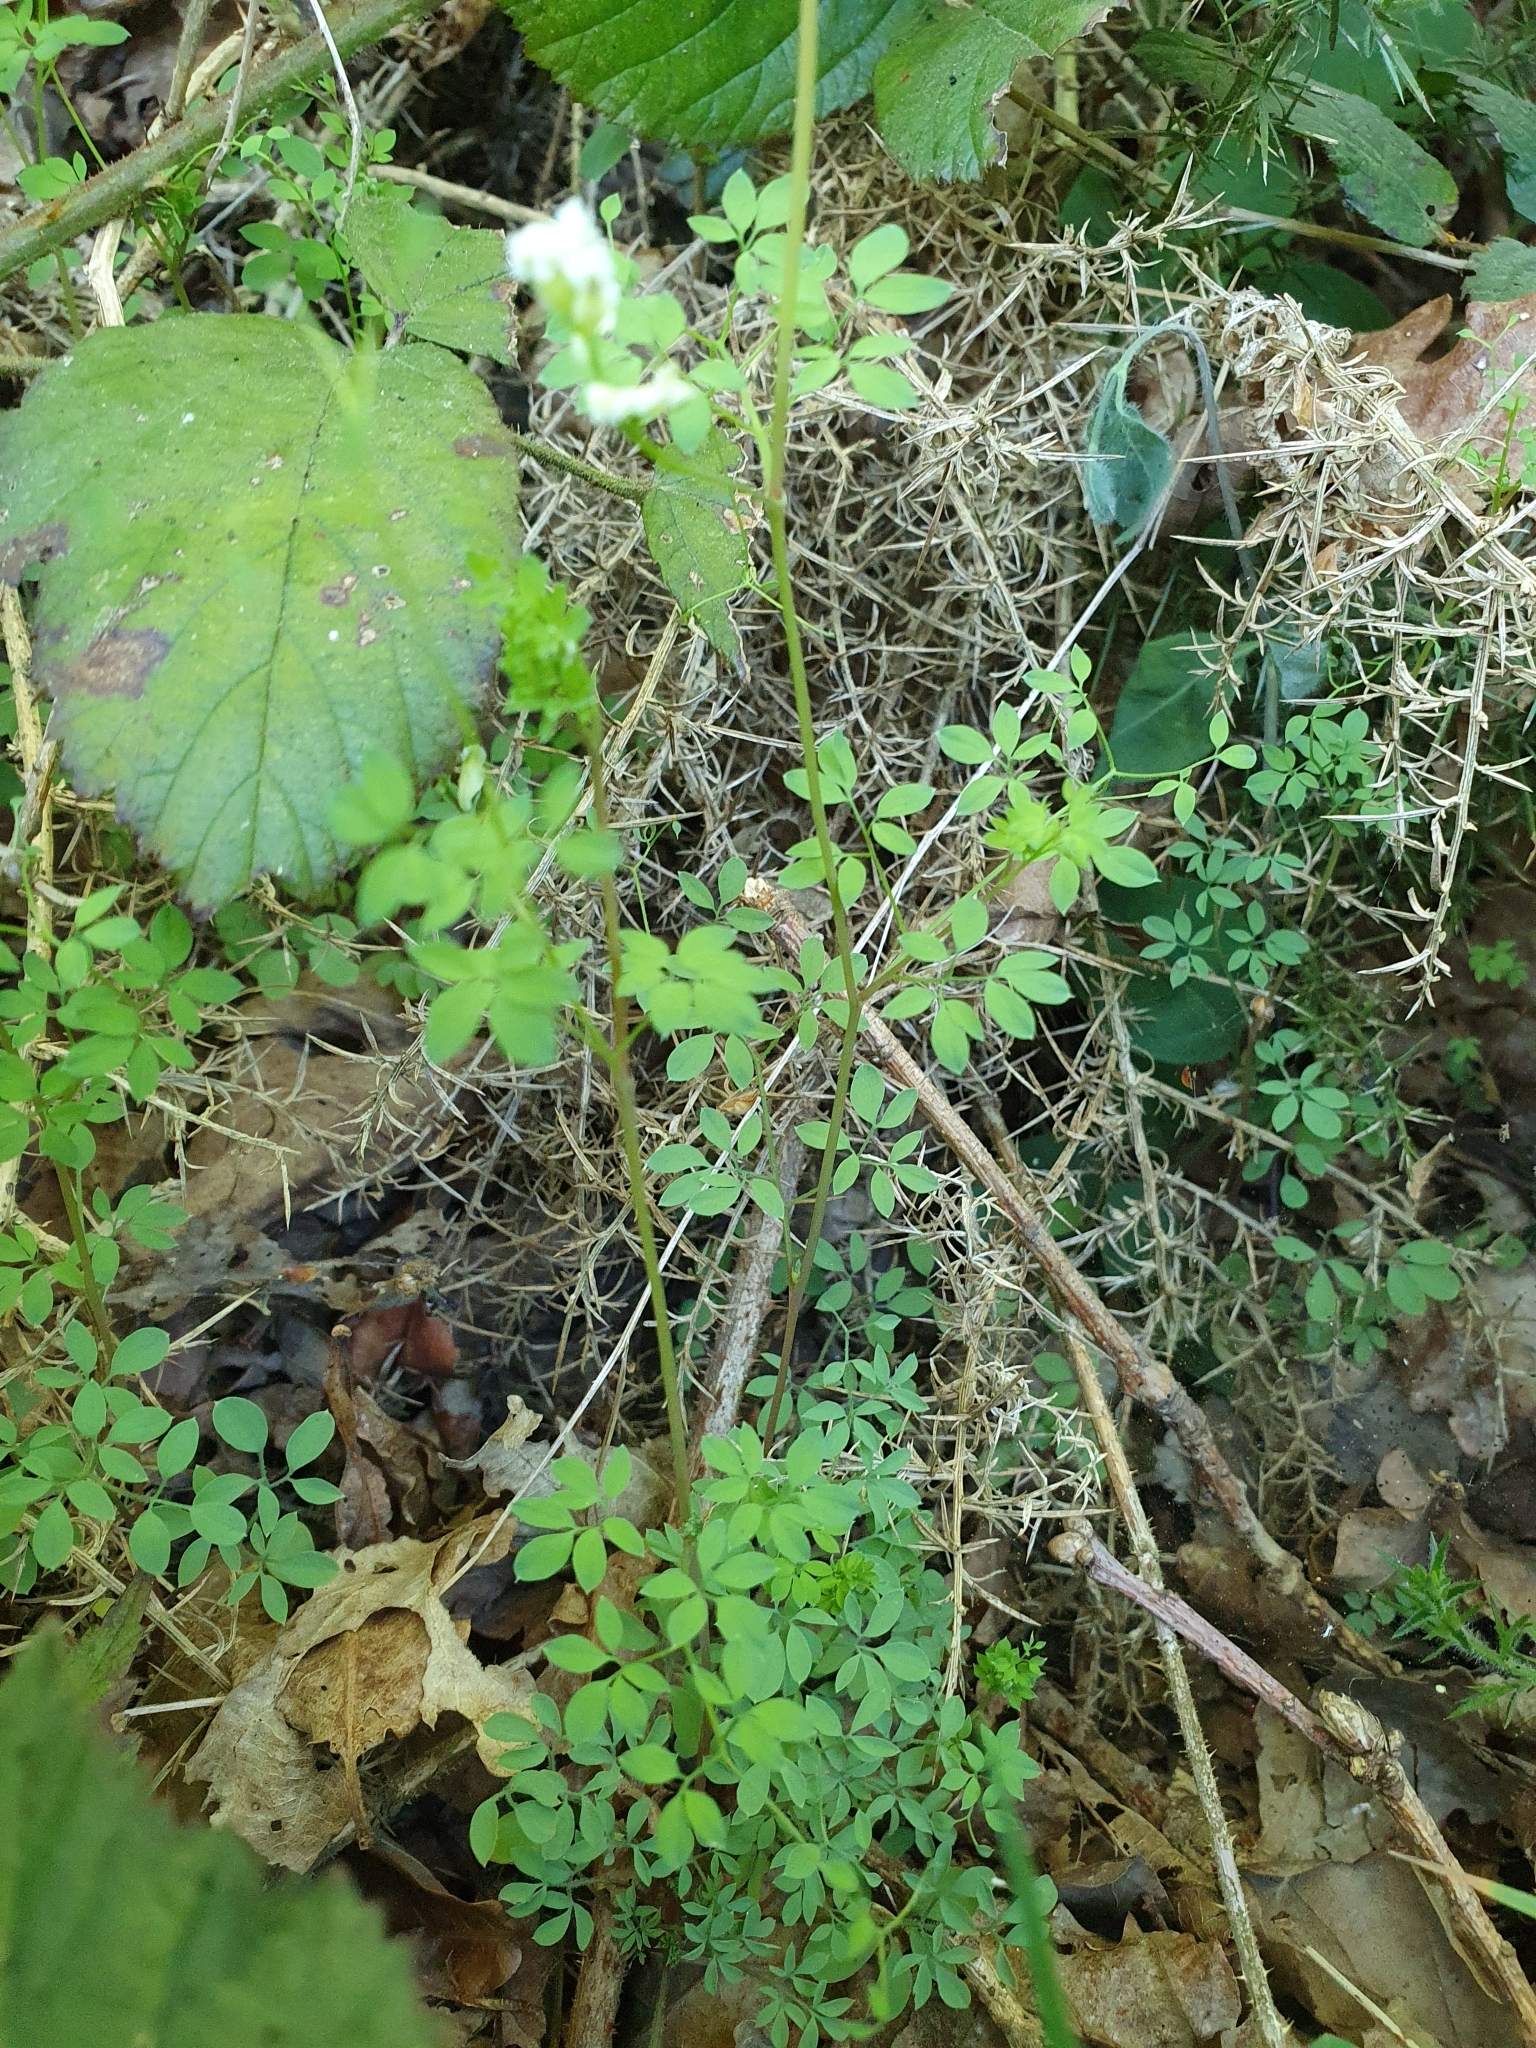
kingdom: Plantae
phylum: Tracheophyta
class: Magnoliopsida
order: Ranunculales
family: Papaveraceae
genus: Ceratocapnos
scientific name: Ceratocapnos claviculata
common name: Climbing corydalis
